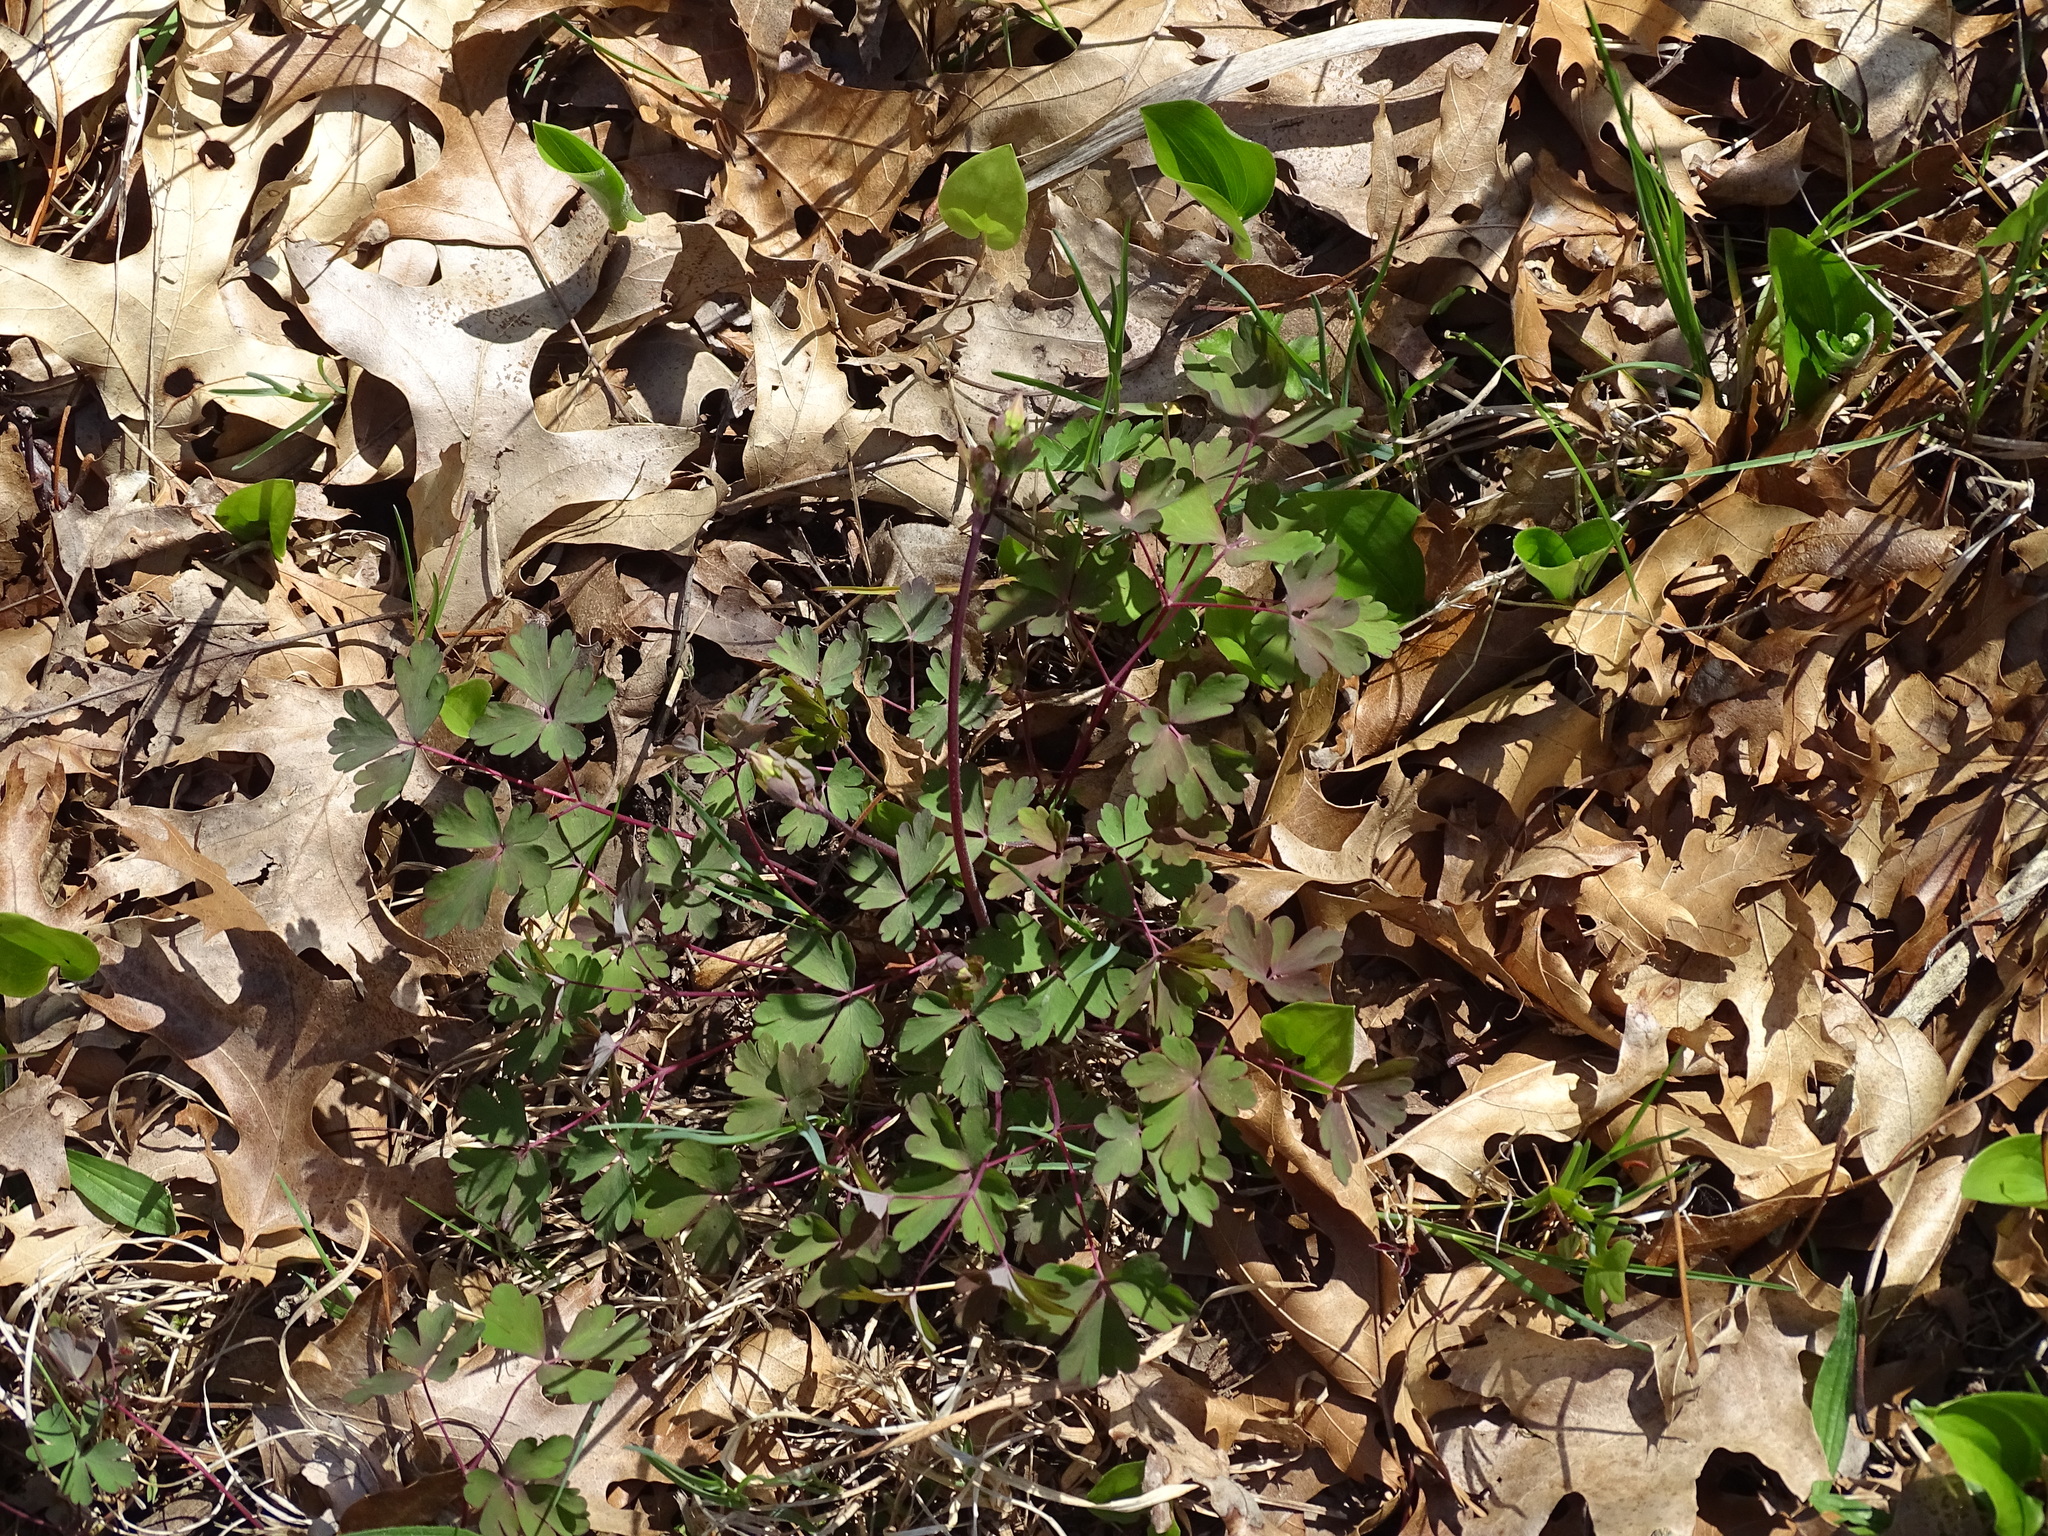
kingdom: Plantae
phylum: Tracheophyta
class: Magnoliopsida
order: Ranunculales
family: Ranunculaceae
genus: Aquilegia
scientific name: Aquilegia canadensis
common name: American columbine
